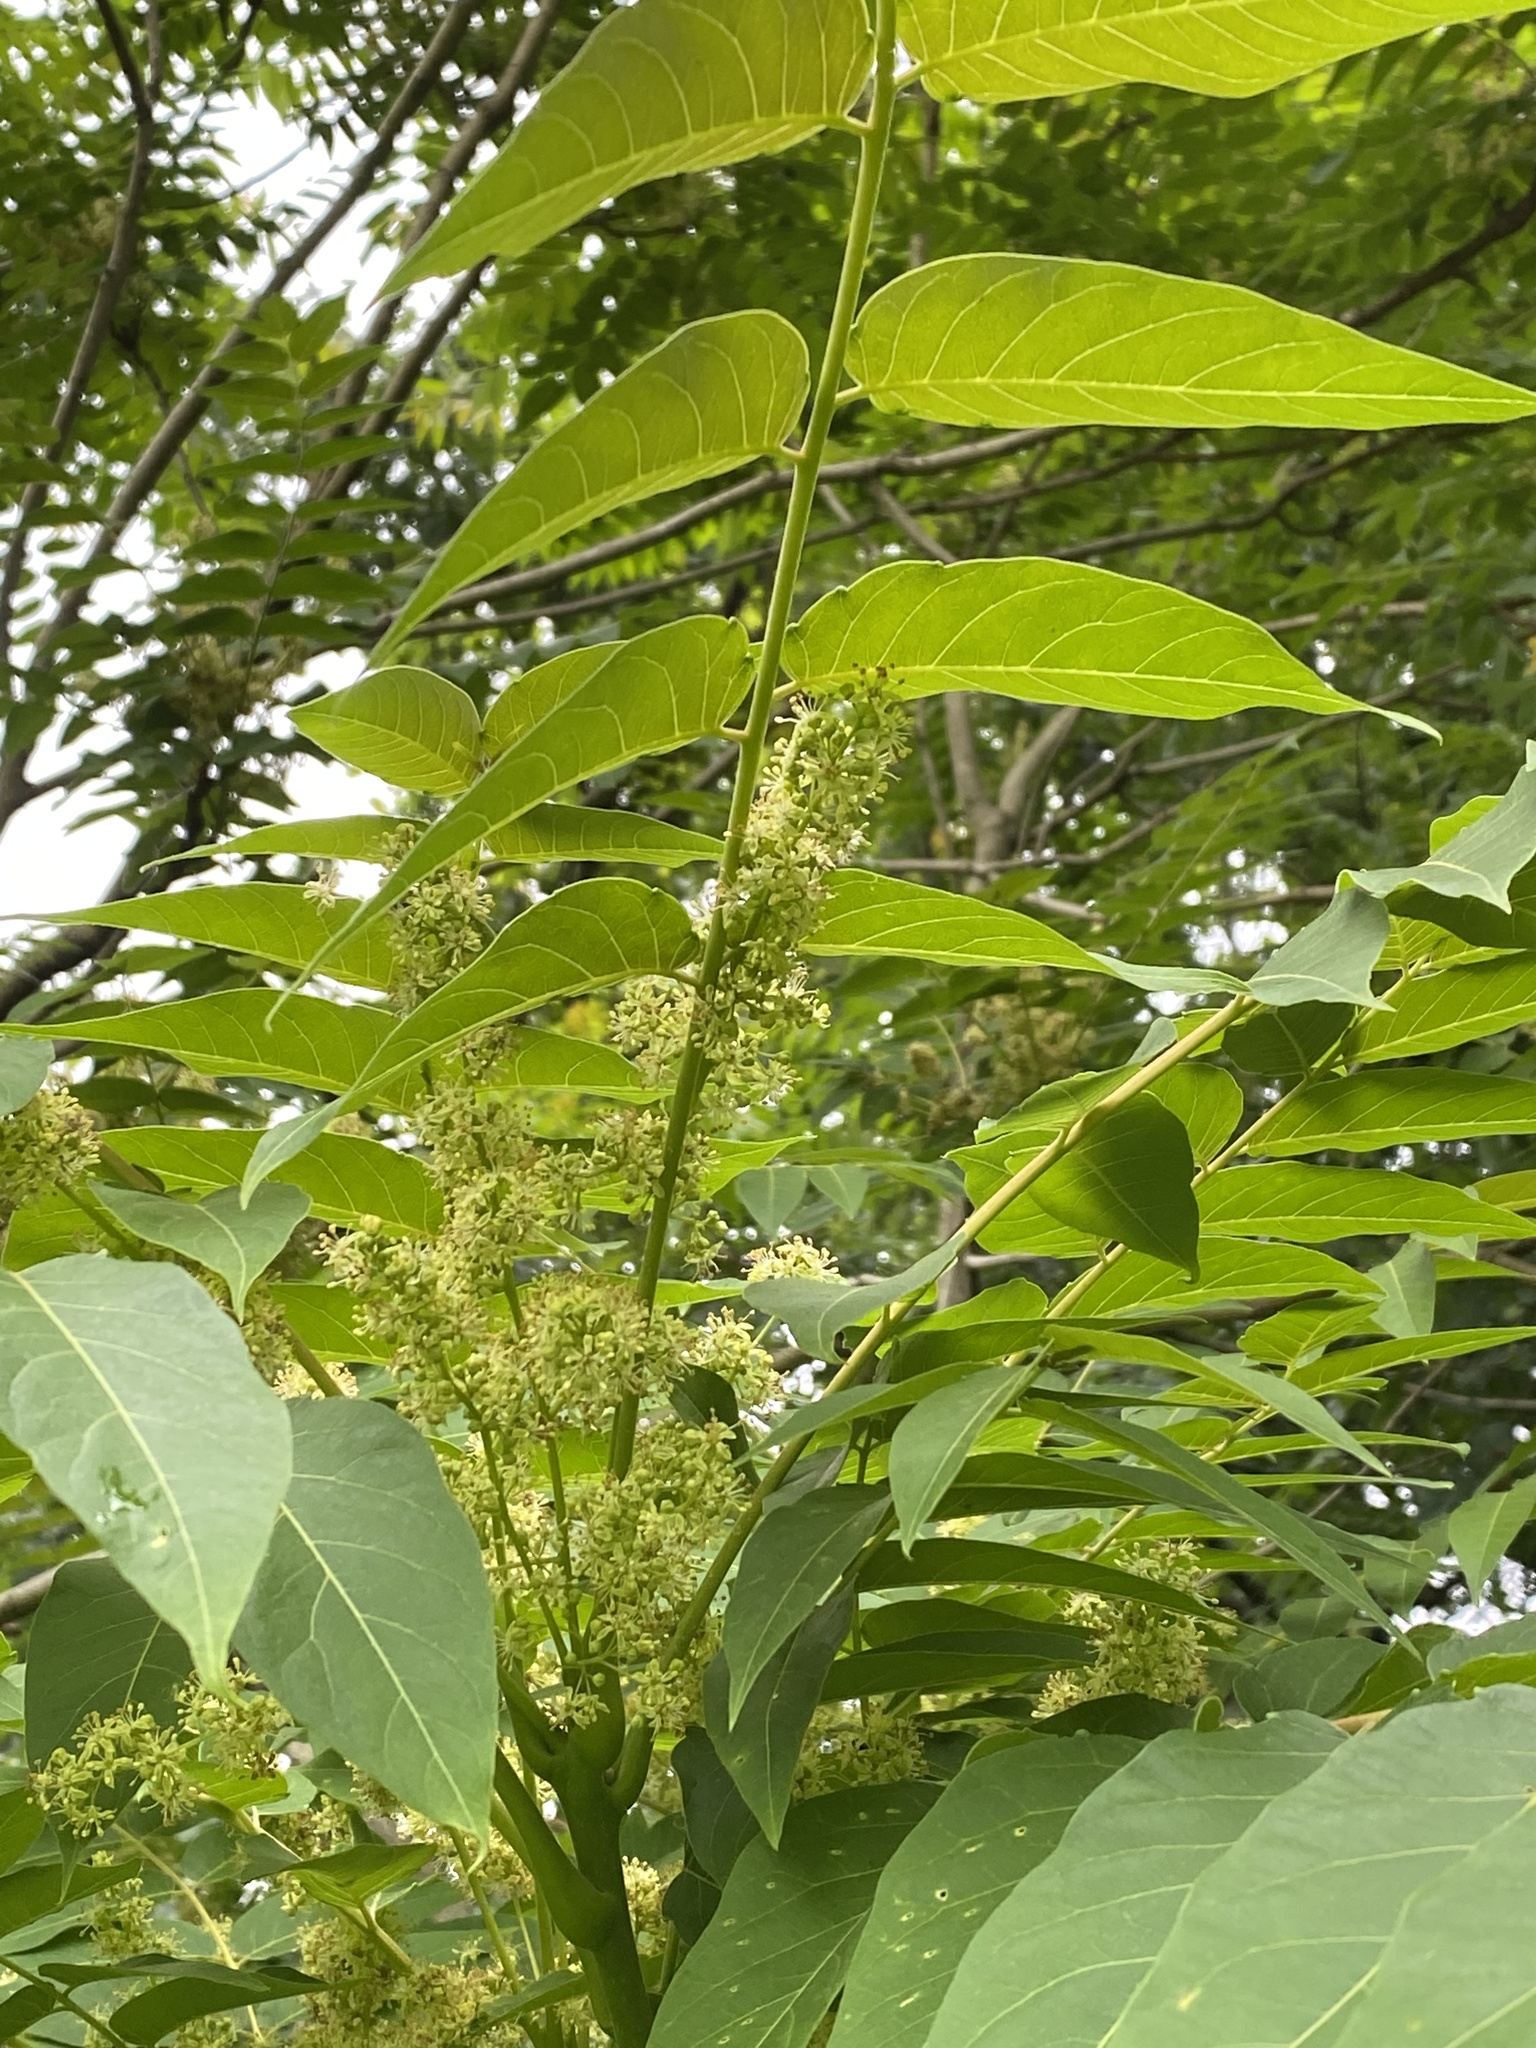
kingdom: Plantae
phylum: Tracheophyta
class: Magnoliopsida
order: Sapindales
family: Simaroubaceae
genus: Ailanthus
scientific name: Ailanthus altissima
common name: Tree-of-heaven
